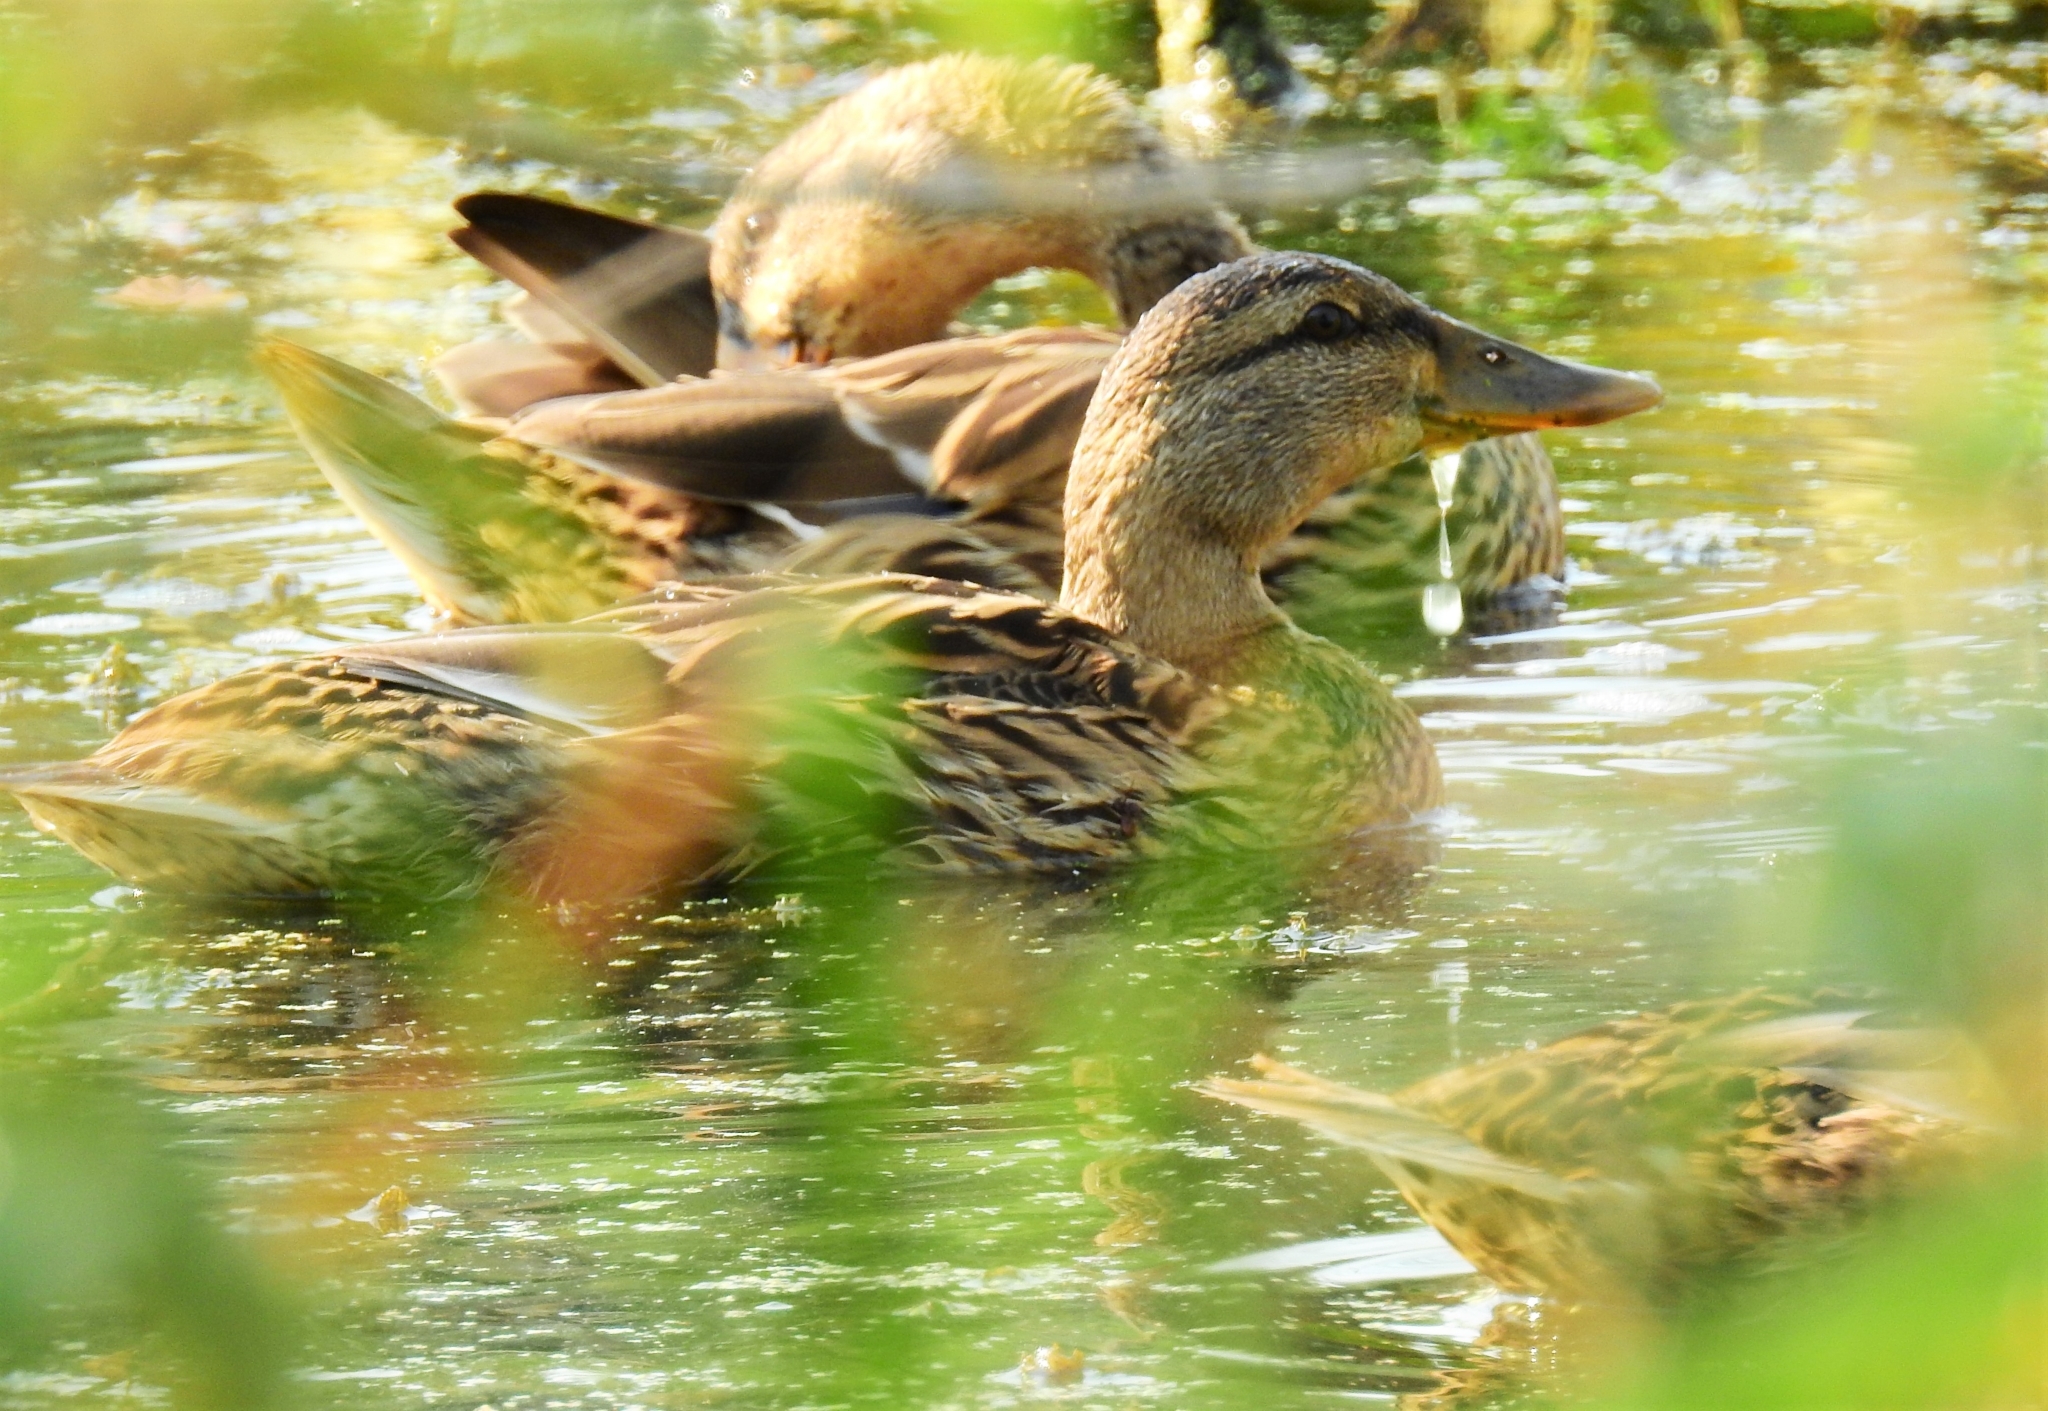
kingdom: Animalia
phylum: Chordata
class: Aves
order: Anseriformes
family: Anatidae
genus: Anas
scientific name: Anas platyrhynchos
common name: Mallard
